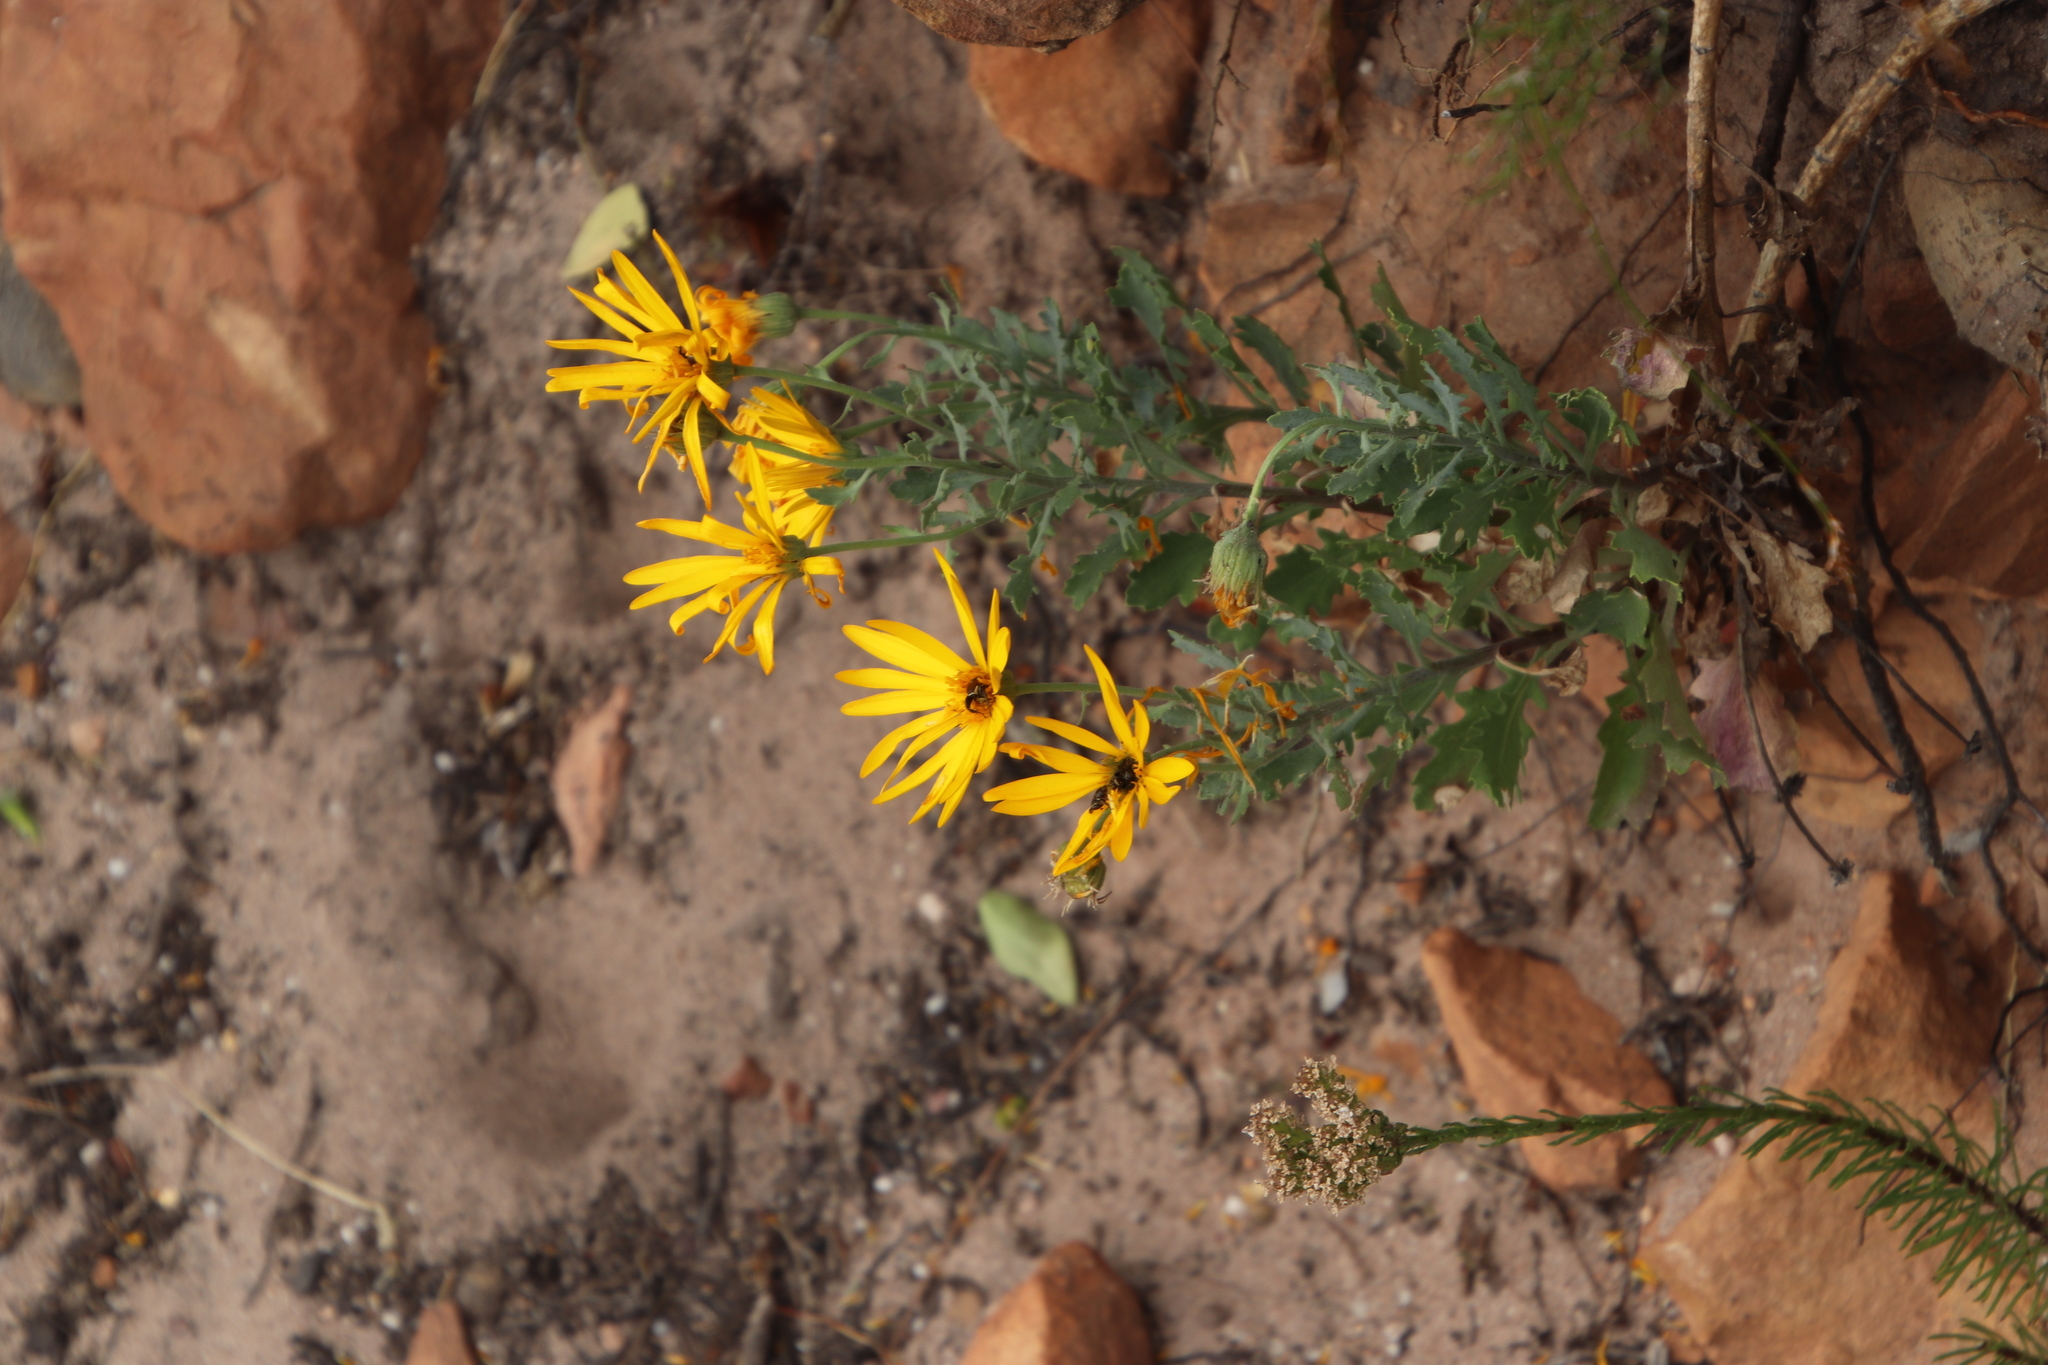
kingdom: Plantae
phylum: Tracheophyta
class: Magnoliopsida
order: Asterales
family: Asteraceae
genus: Dimorphotheca
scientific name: Dimorphotheca chrysanthemifolia
